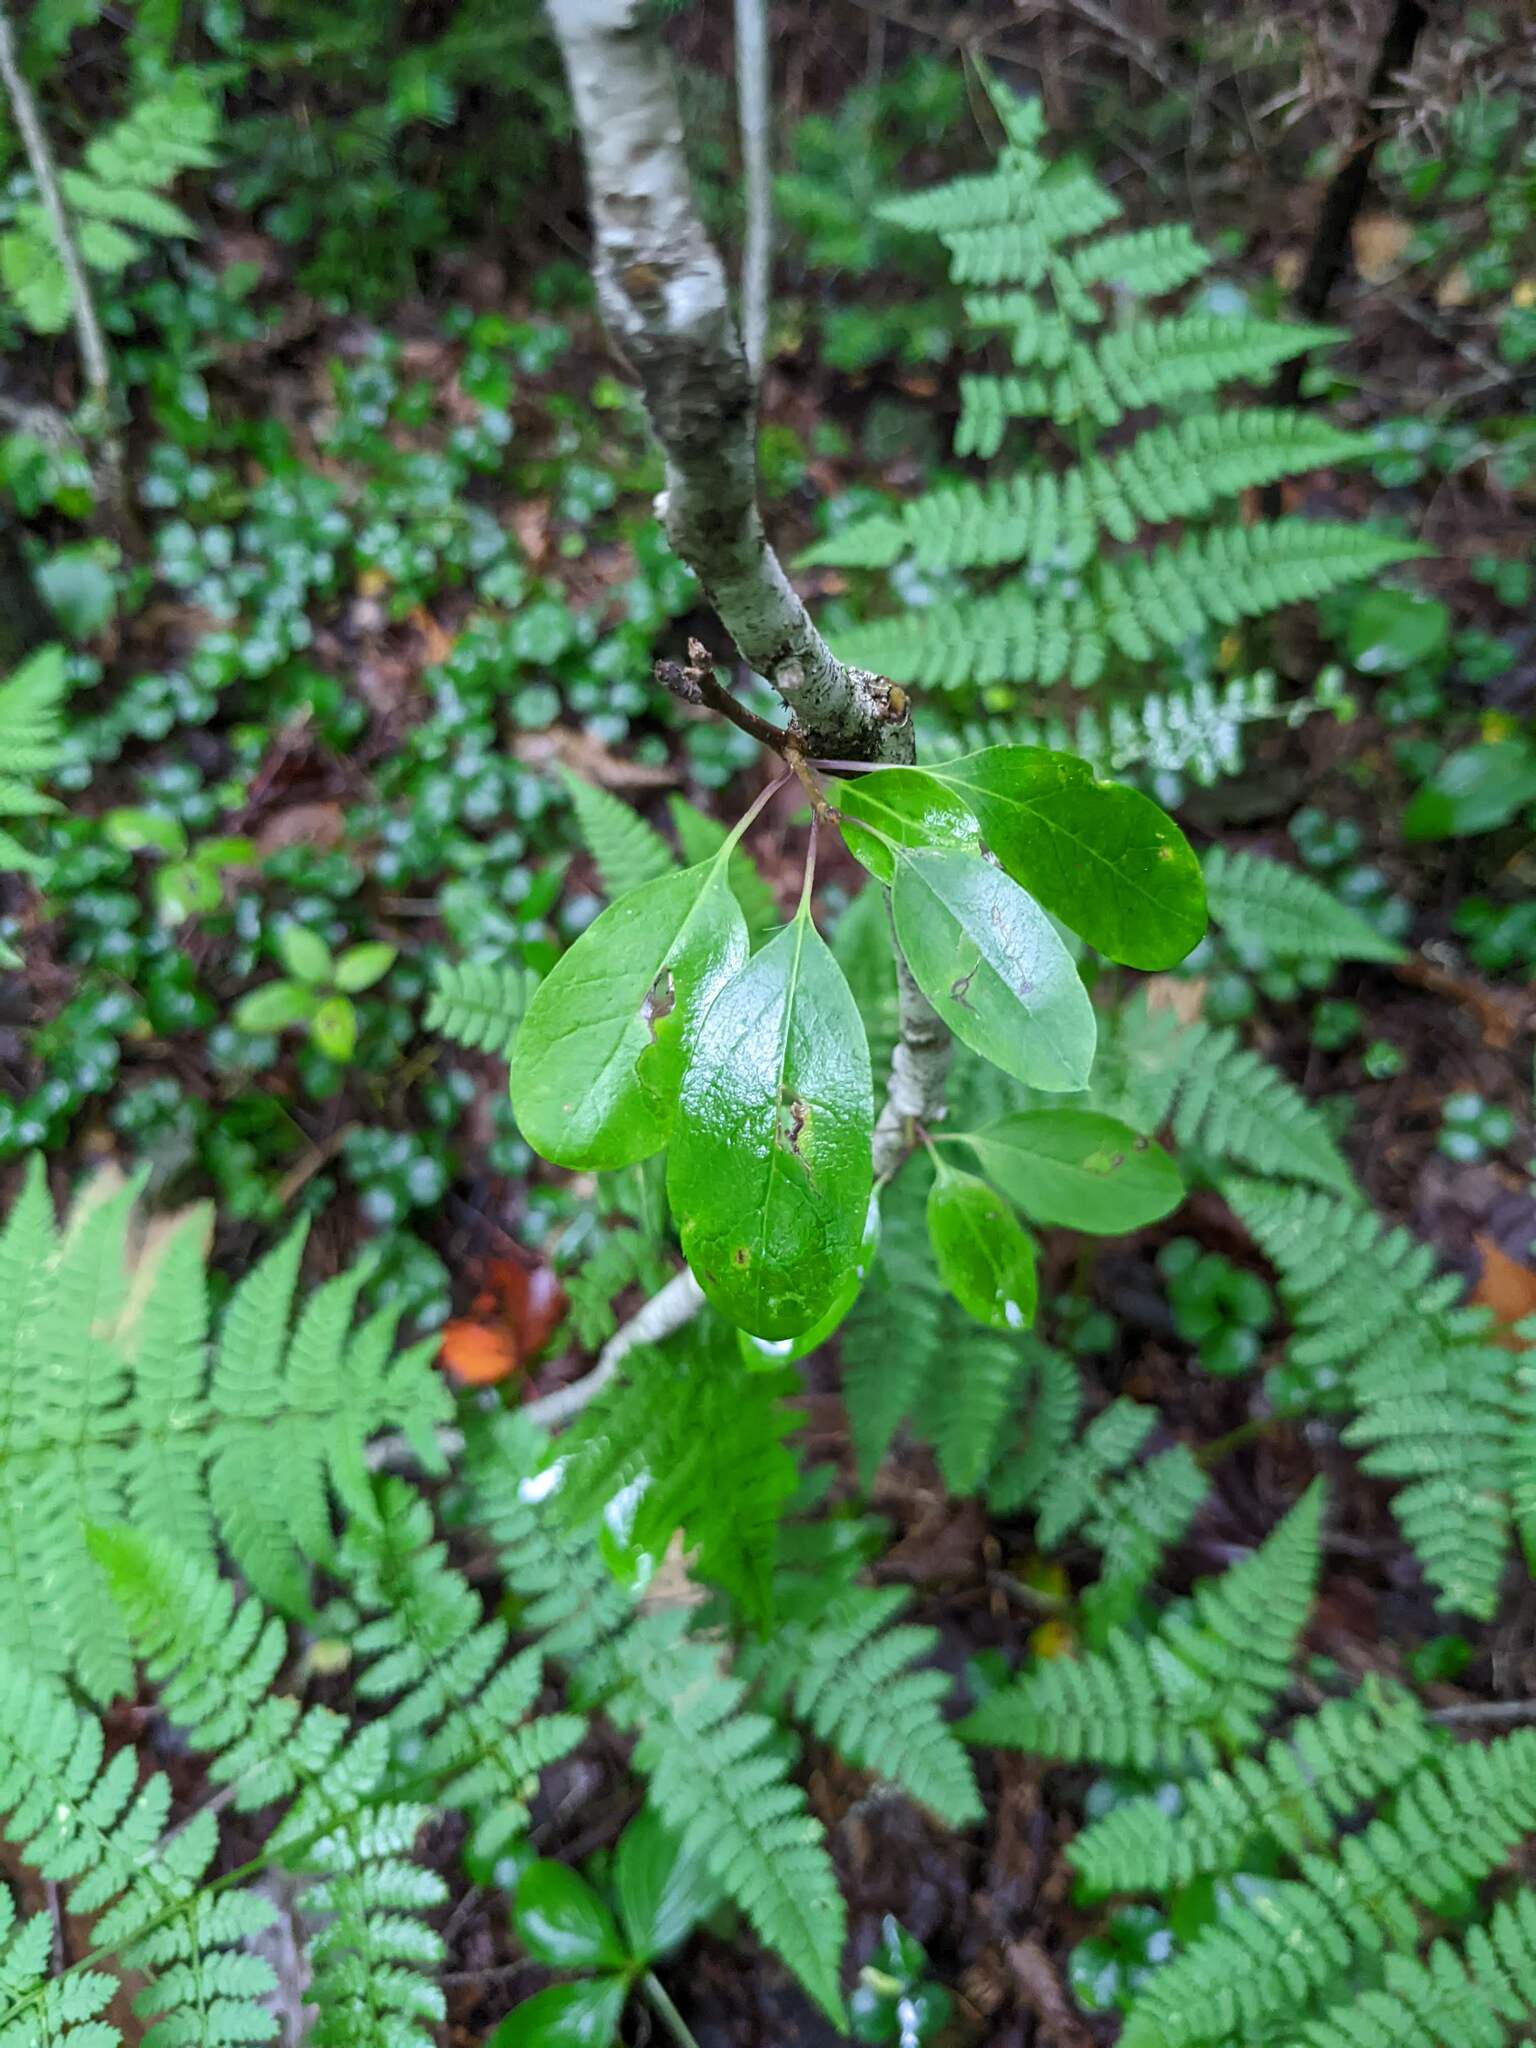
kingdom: Plantae
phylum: Tracheophyta
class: Magnoliopsida
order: Aquifoliales
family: Aquifoliaceae
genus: Ilex
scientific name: Ilex mucronata
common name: Catberry
